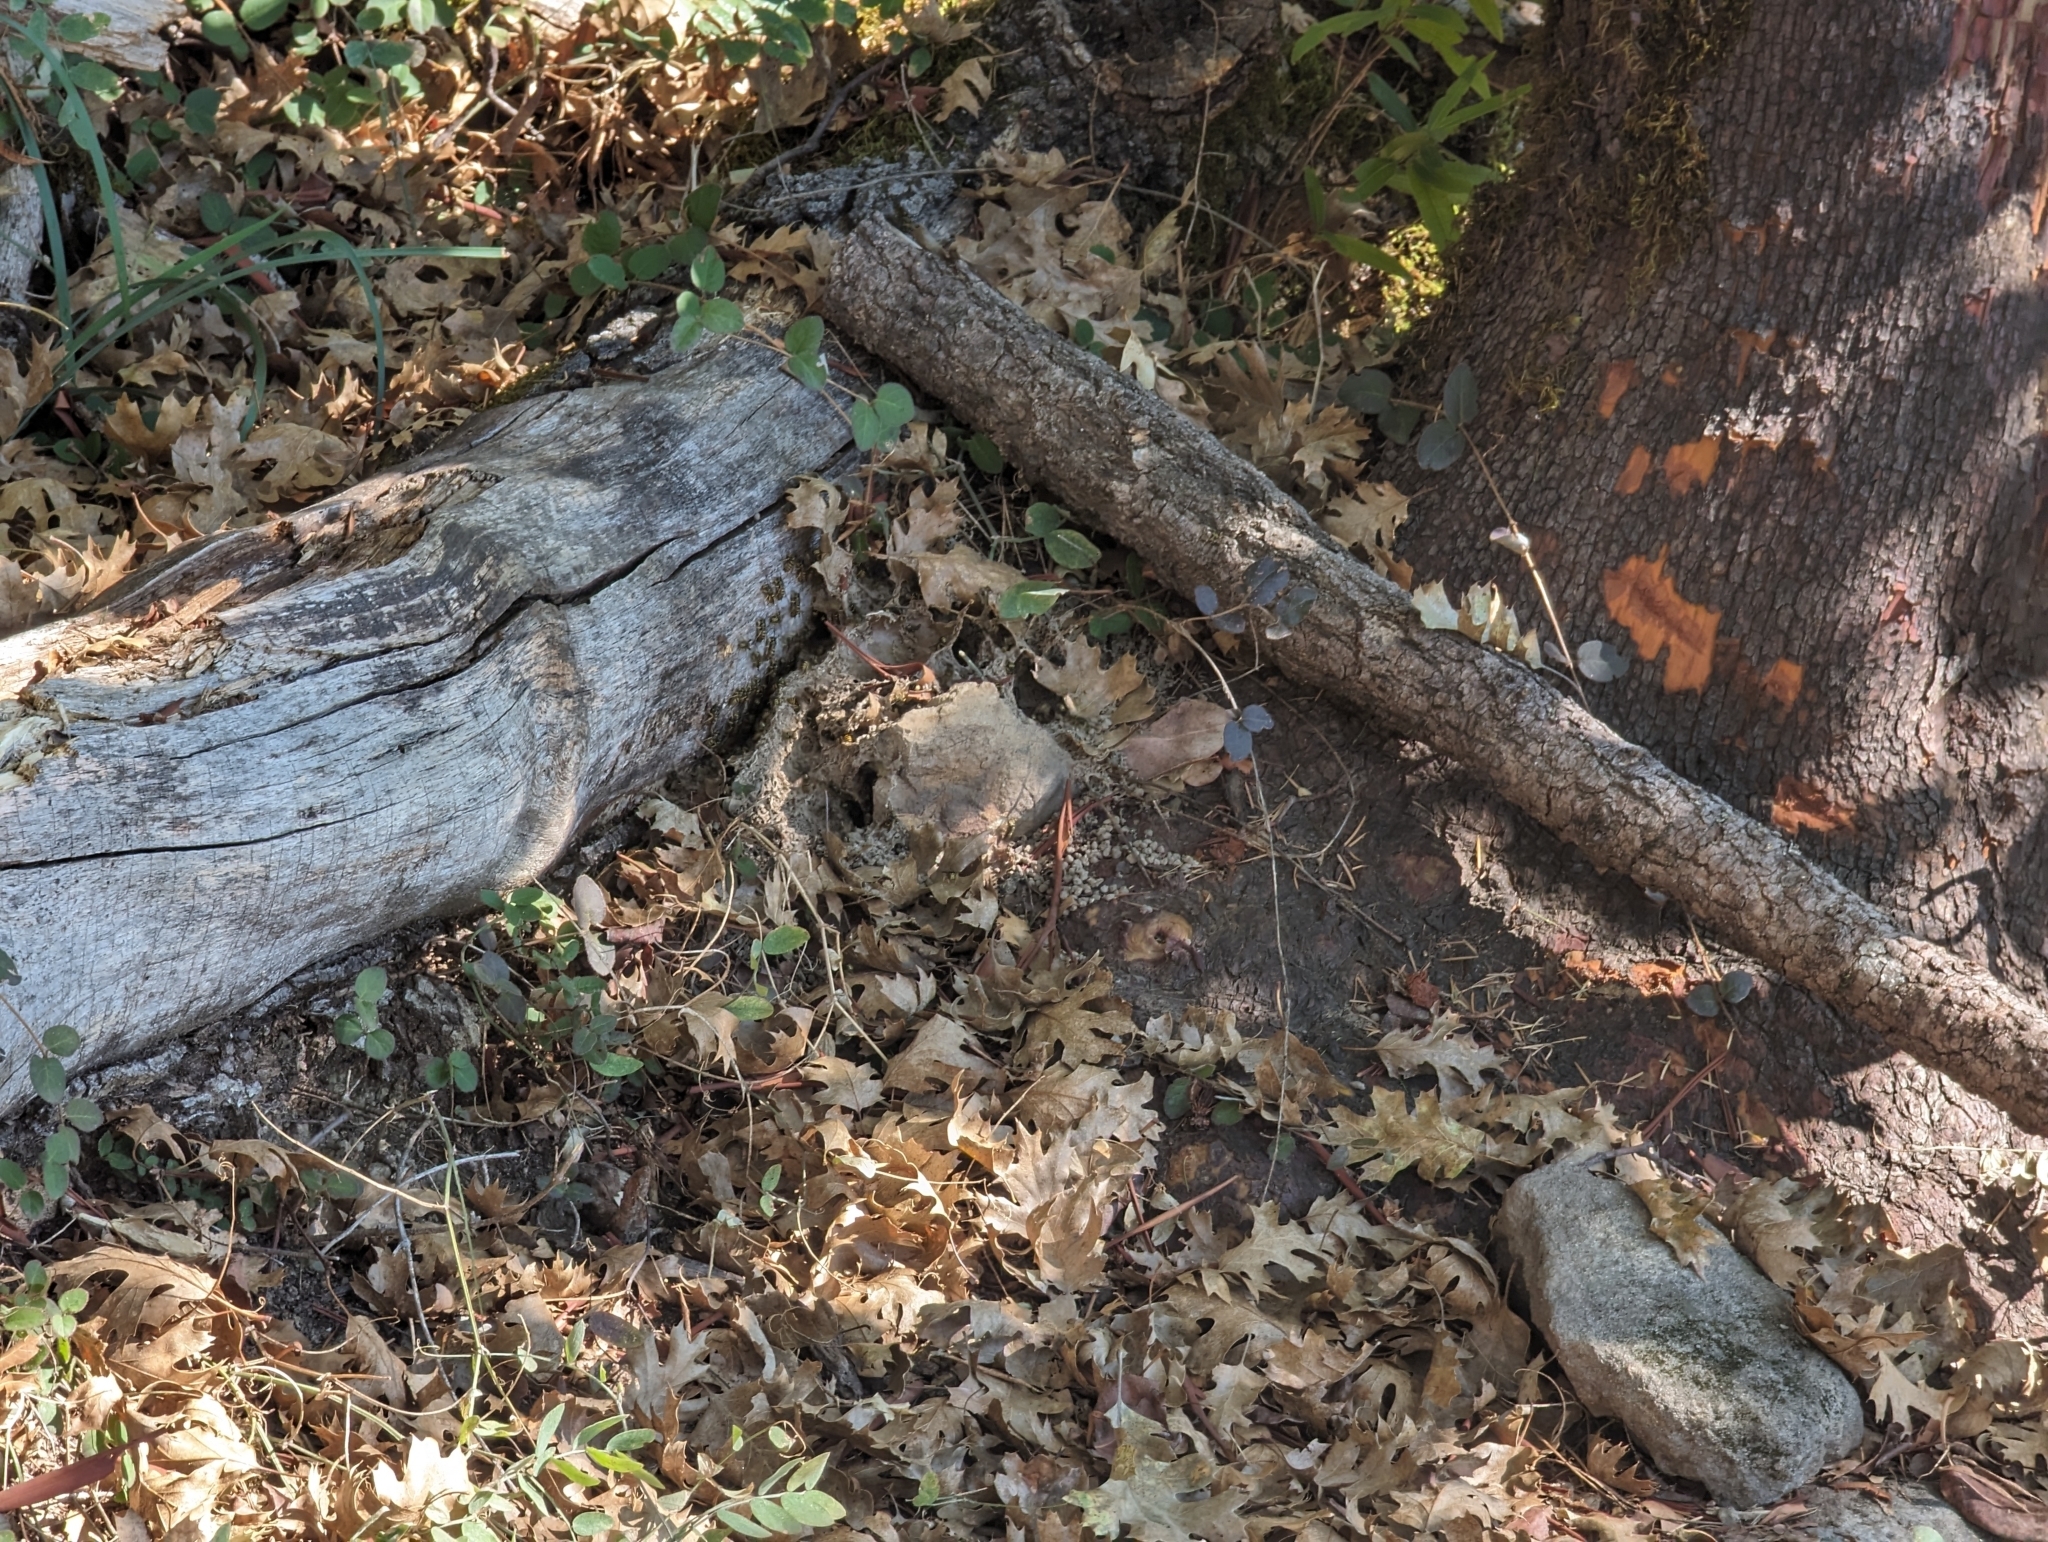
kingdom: Animalia
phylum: Arthropoda
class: Insecta
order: Hymenoptera
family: Vespidae
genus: Vespula
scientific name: Vespula
